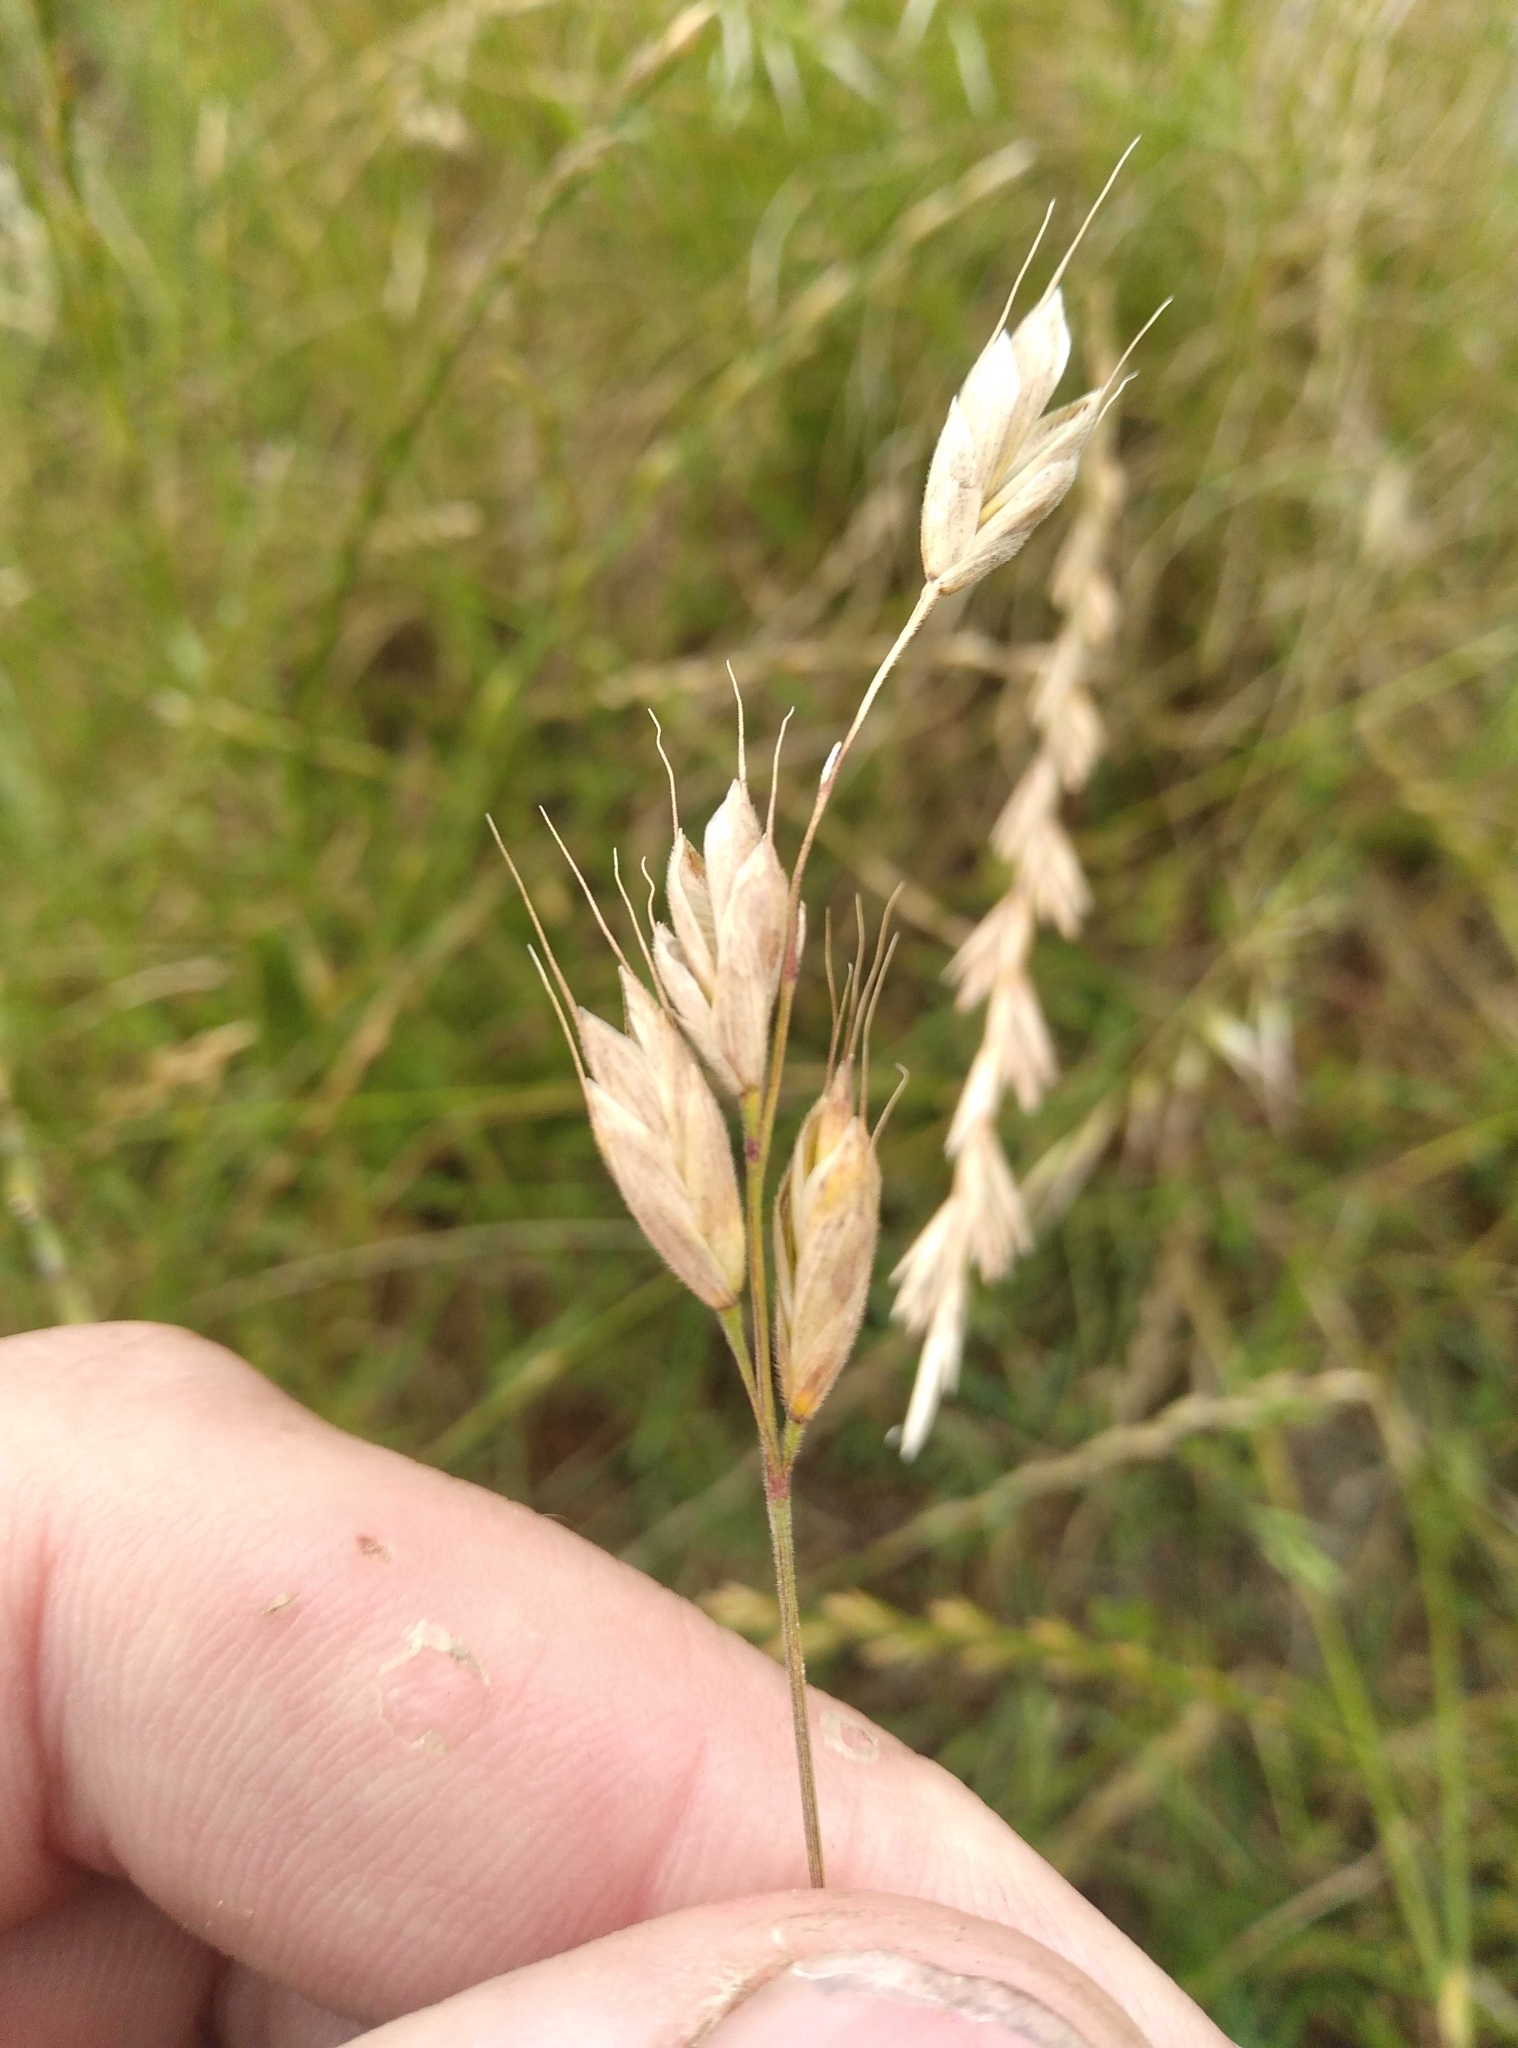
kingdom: Plantae
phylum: Tracheophyta
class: Liliopsida
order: Poales
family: Poaceae
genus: Bromus
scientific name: Bromus hordeaceus
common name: Soft brome
